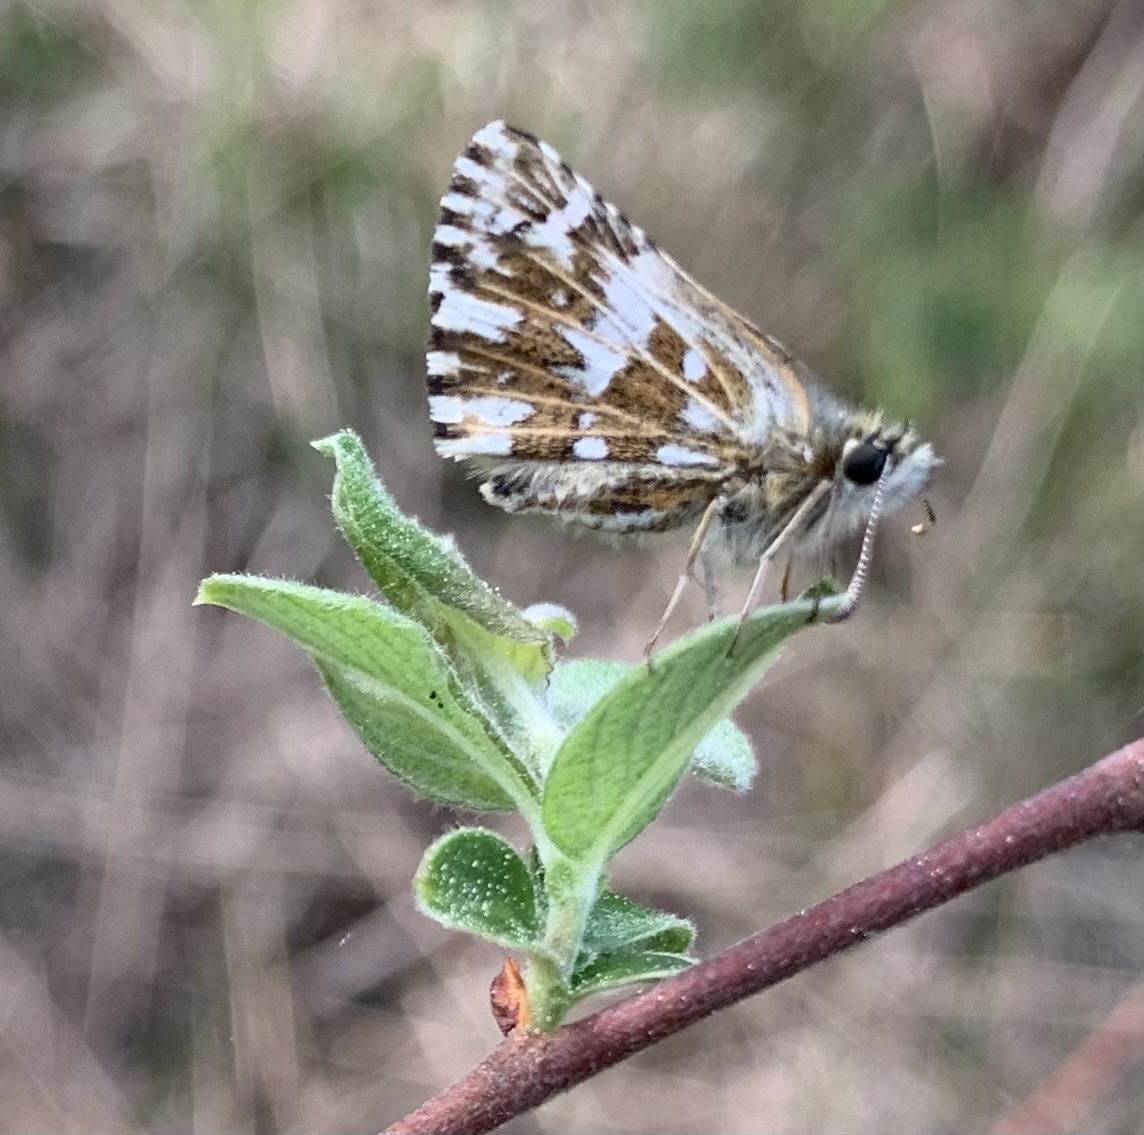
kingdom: Animalia
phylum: Arthropoda
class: Insecta
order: Lepidoptera
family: Hesperiidae
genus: Pyrgus
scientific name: Pyrgus malvae
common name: Grizzled skipper
